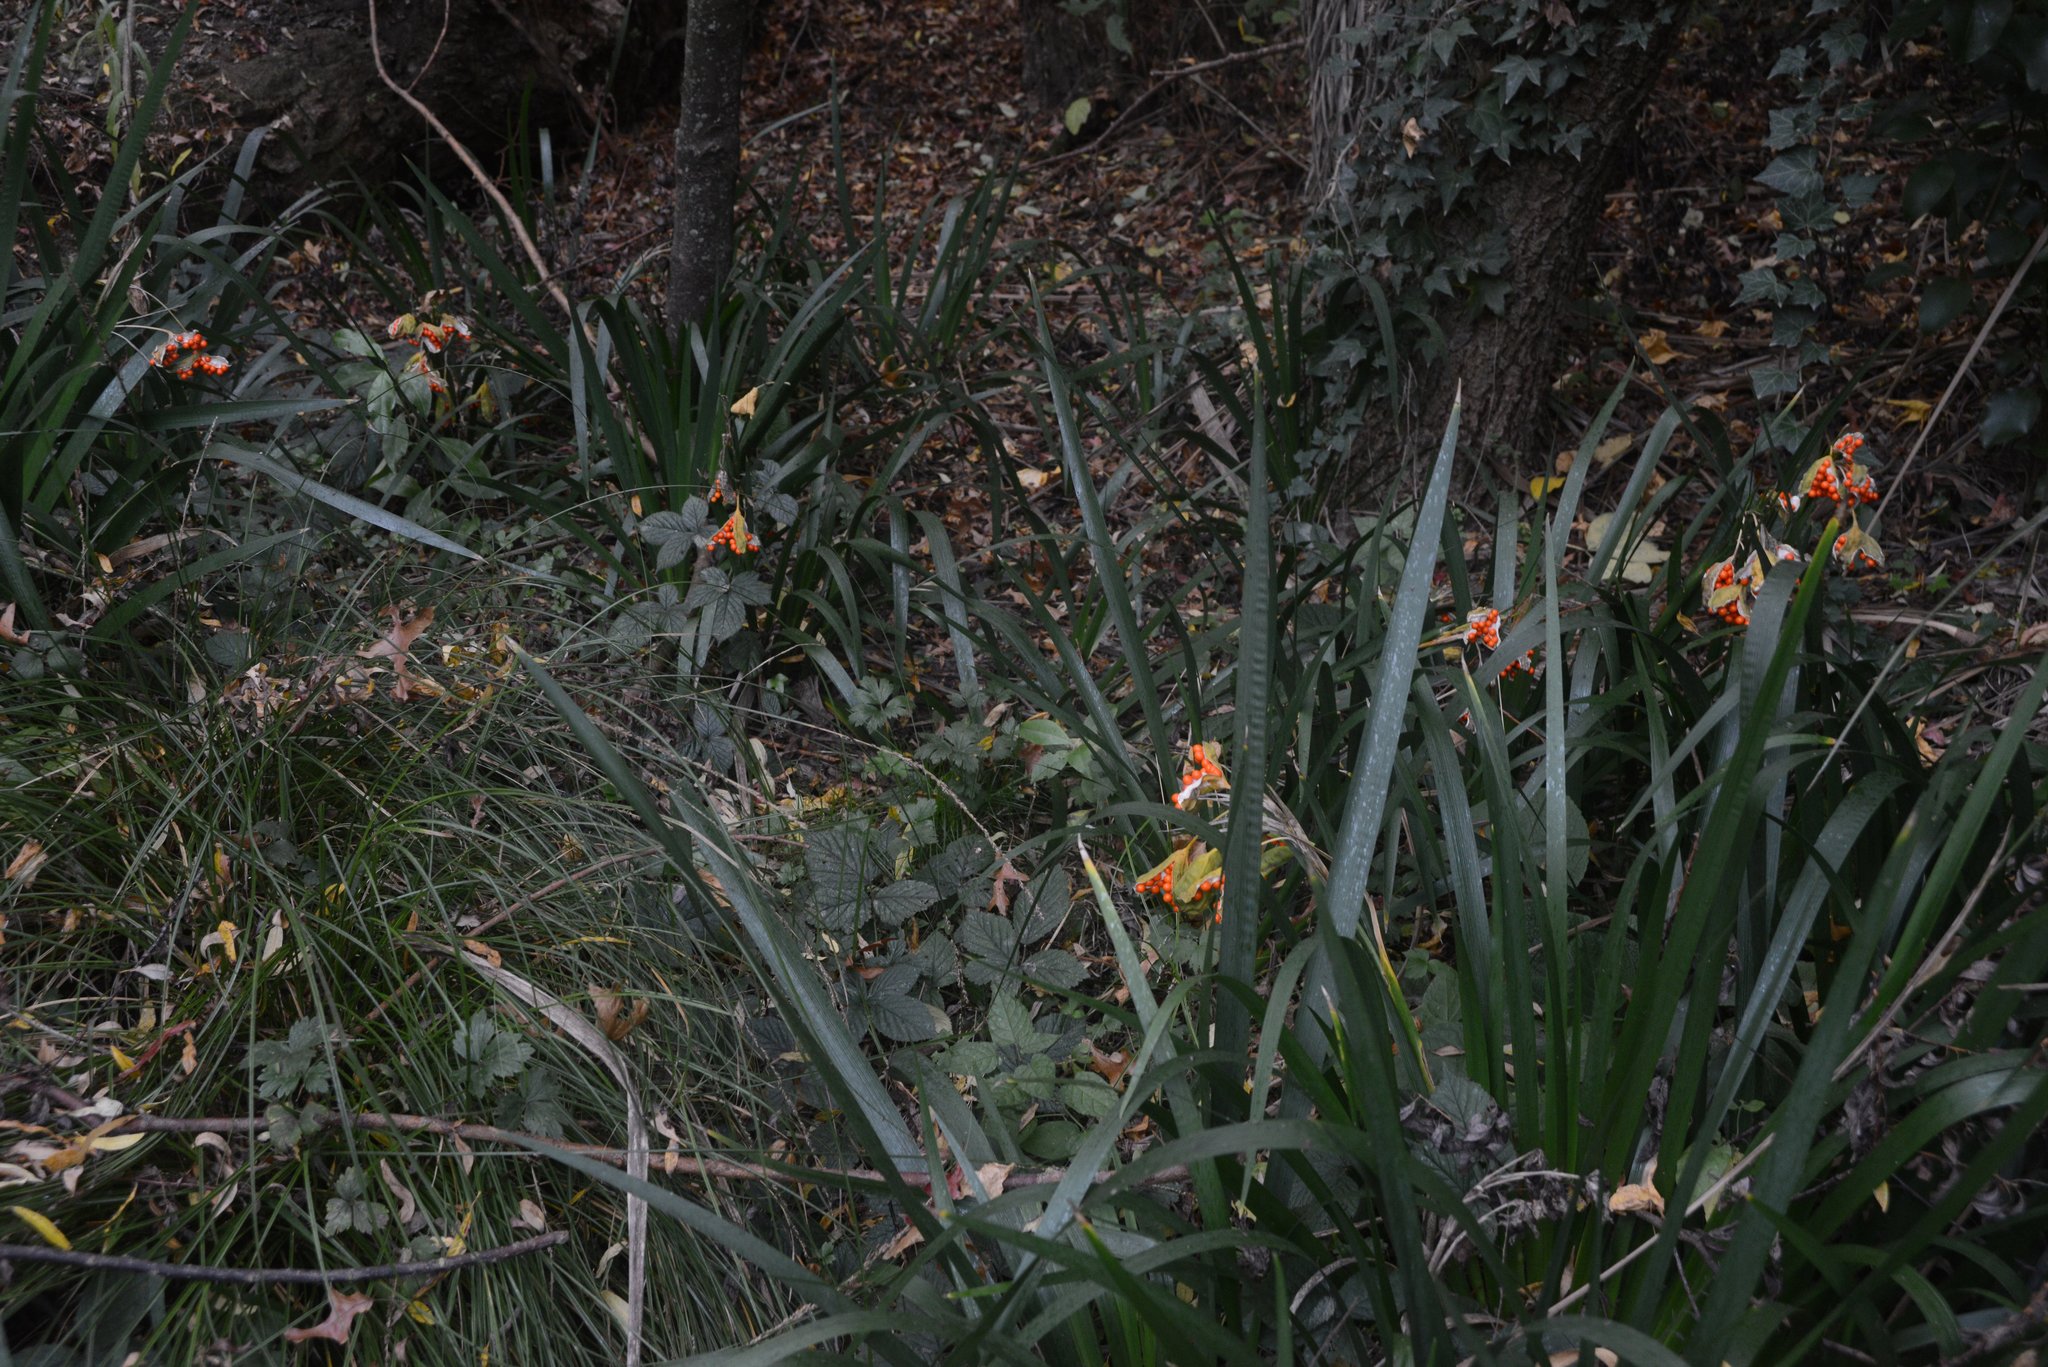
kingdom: Plantae
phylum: Tracheophyta
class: Liliopsida
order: Asparagales
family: Iridaceae
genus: Iris
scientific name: Iris foetidissima
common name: Stinking iris
